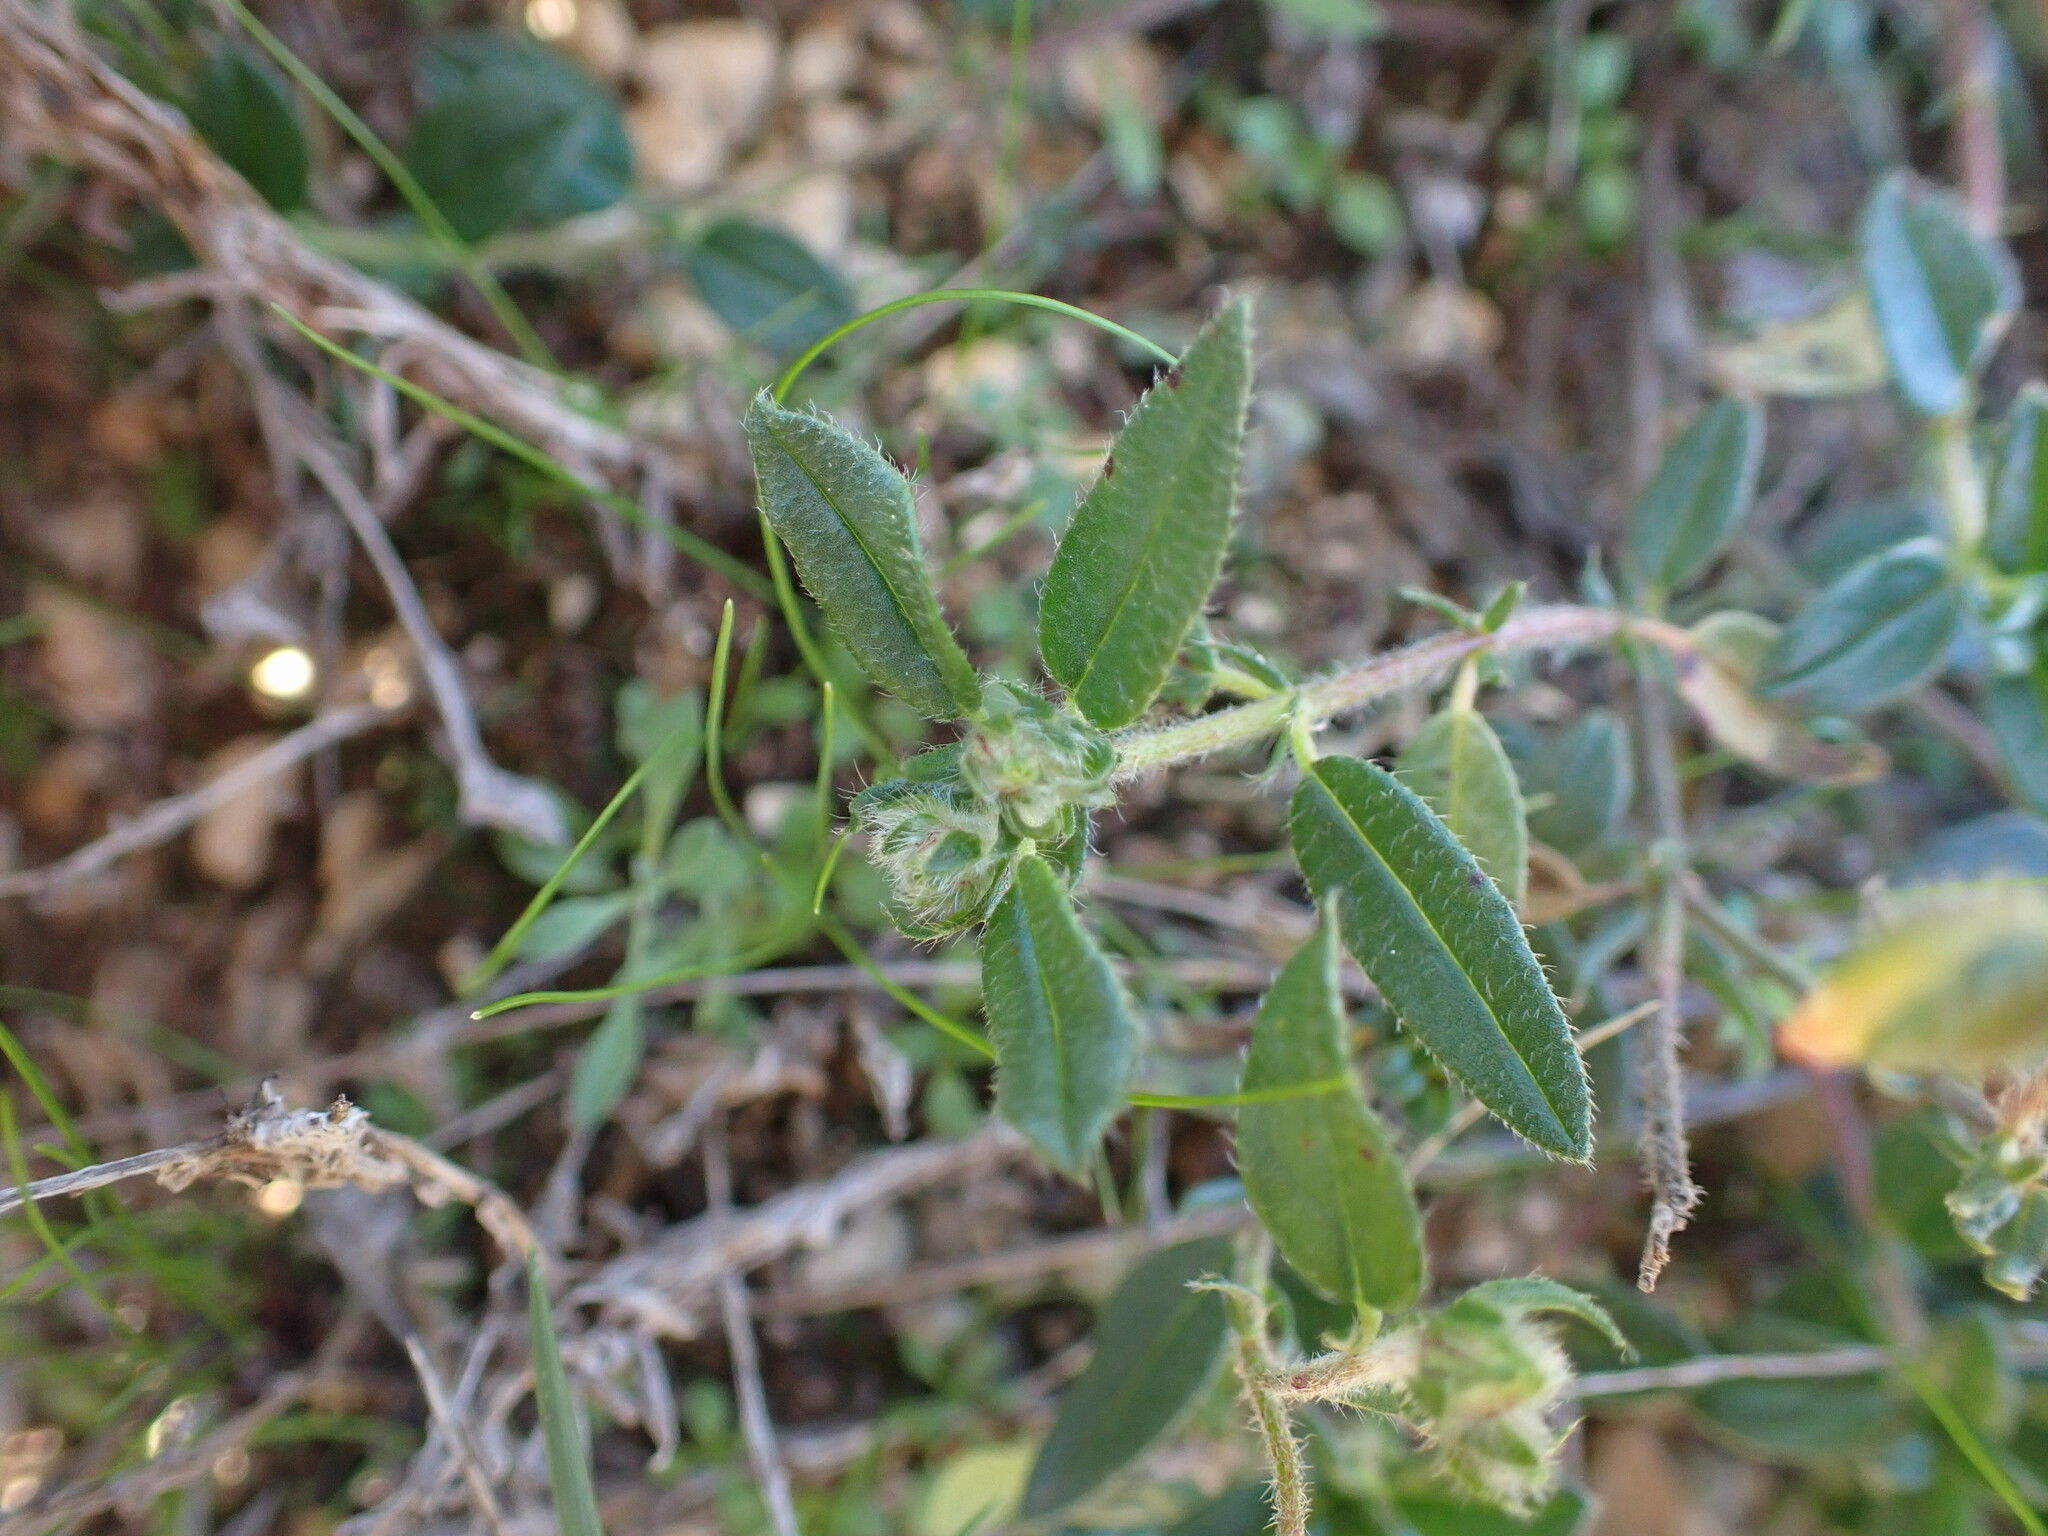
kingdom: Plantae
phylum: Tracheophyta
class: Magnoliopsida
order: Malvales
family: Cistaceae
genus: Helianthemum
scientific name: Helianthemum nummularium
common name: Common rock-rose
